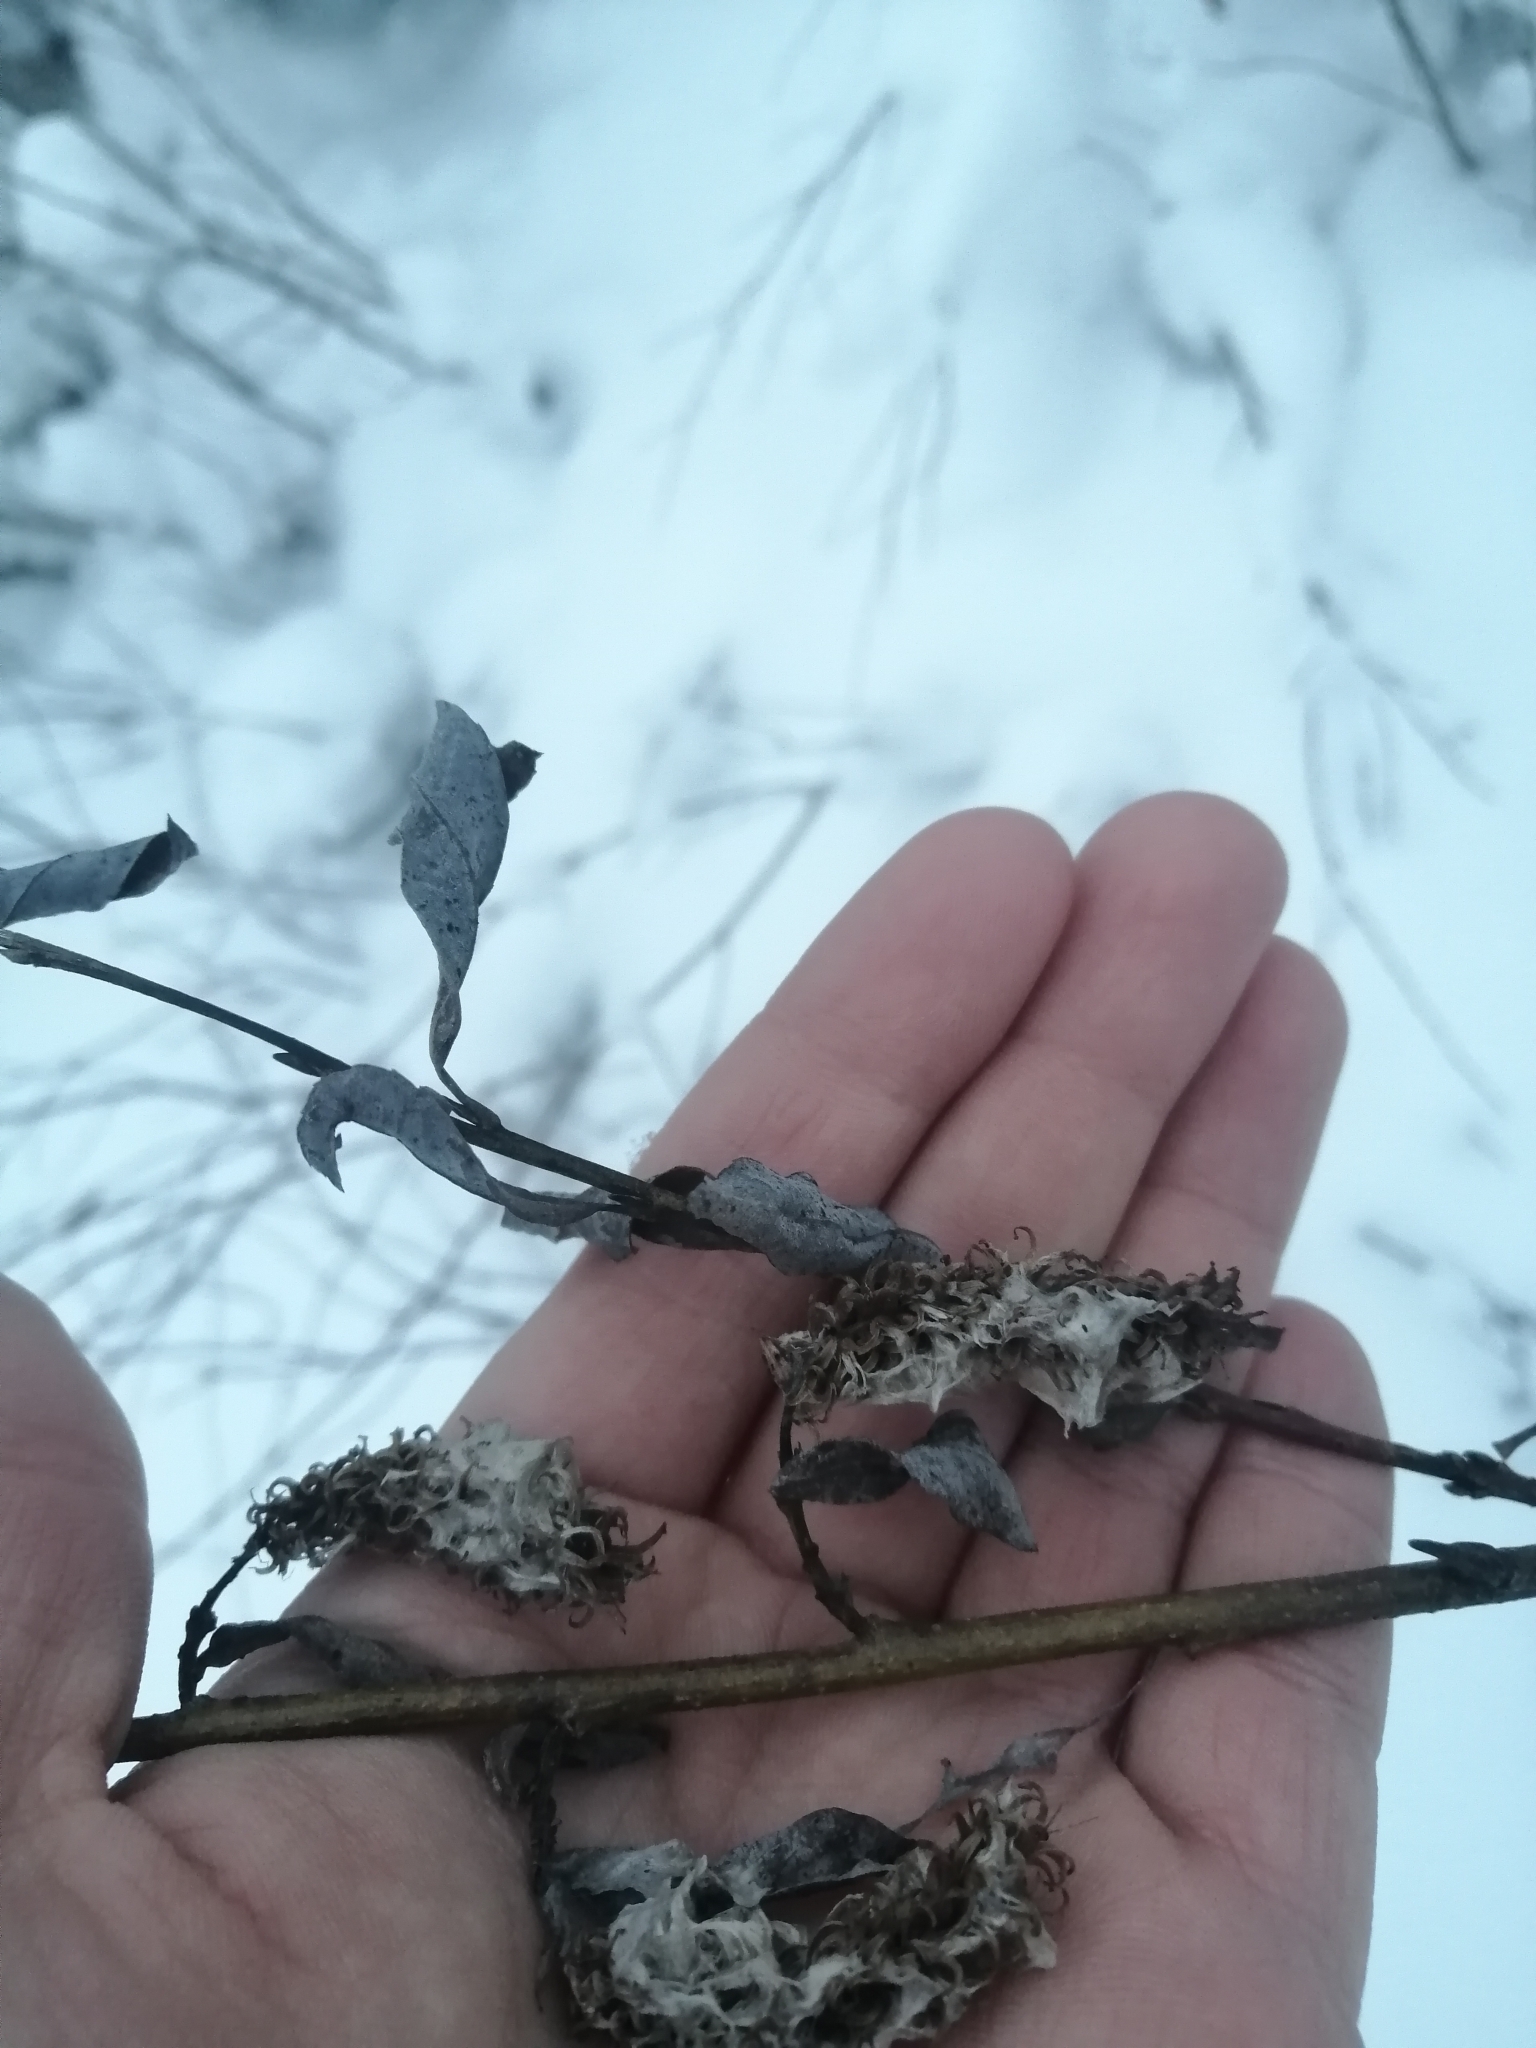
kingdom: Plantae
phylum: Tracheophyta
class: Magnoliopsida
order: Malpighiales
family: Salicaceae
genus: Salix
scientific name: Salix pentandra
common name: Bay willow
